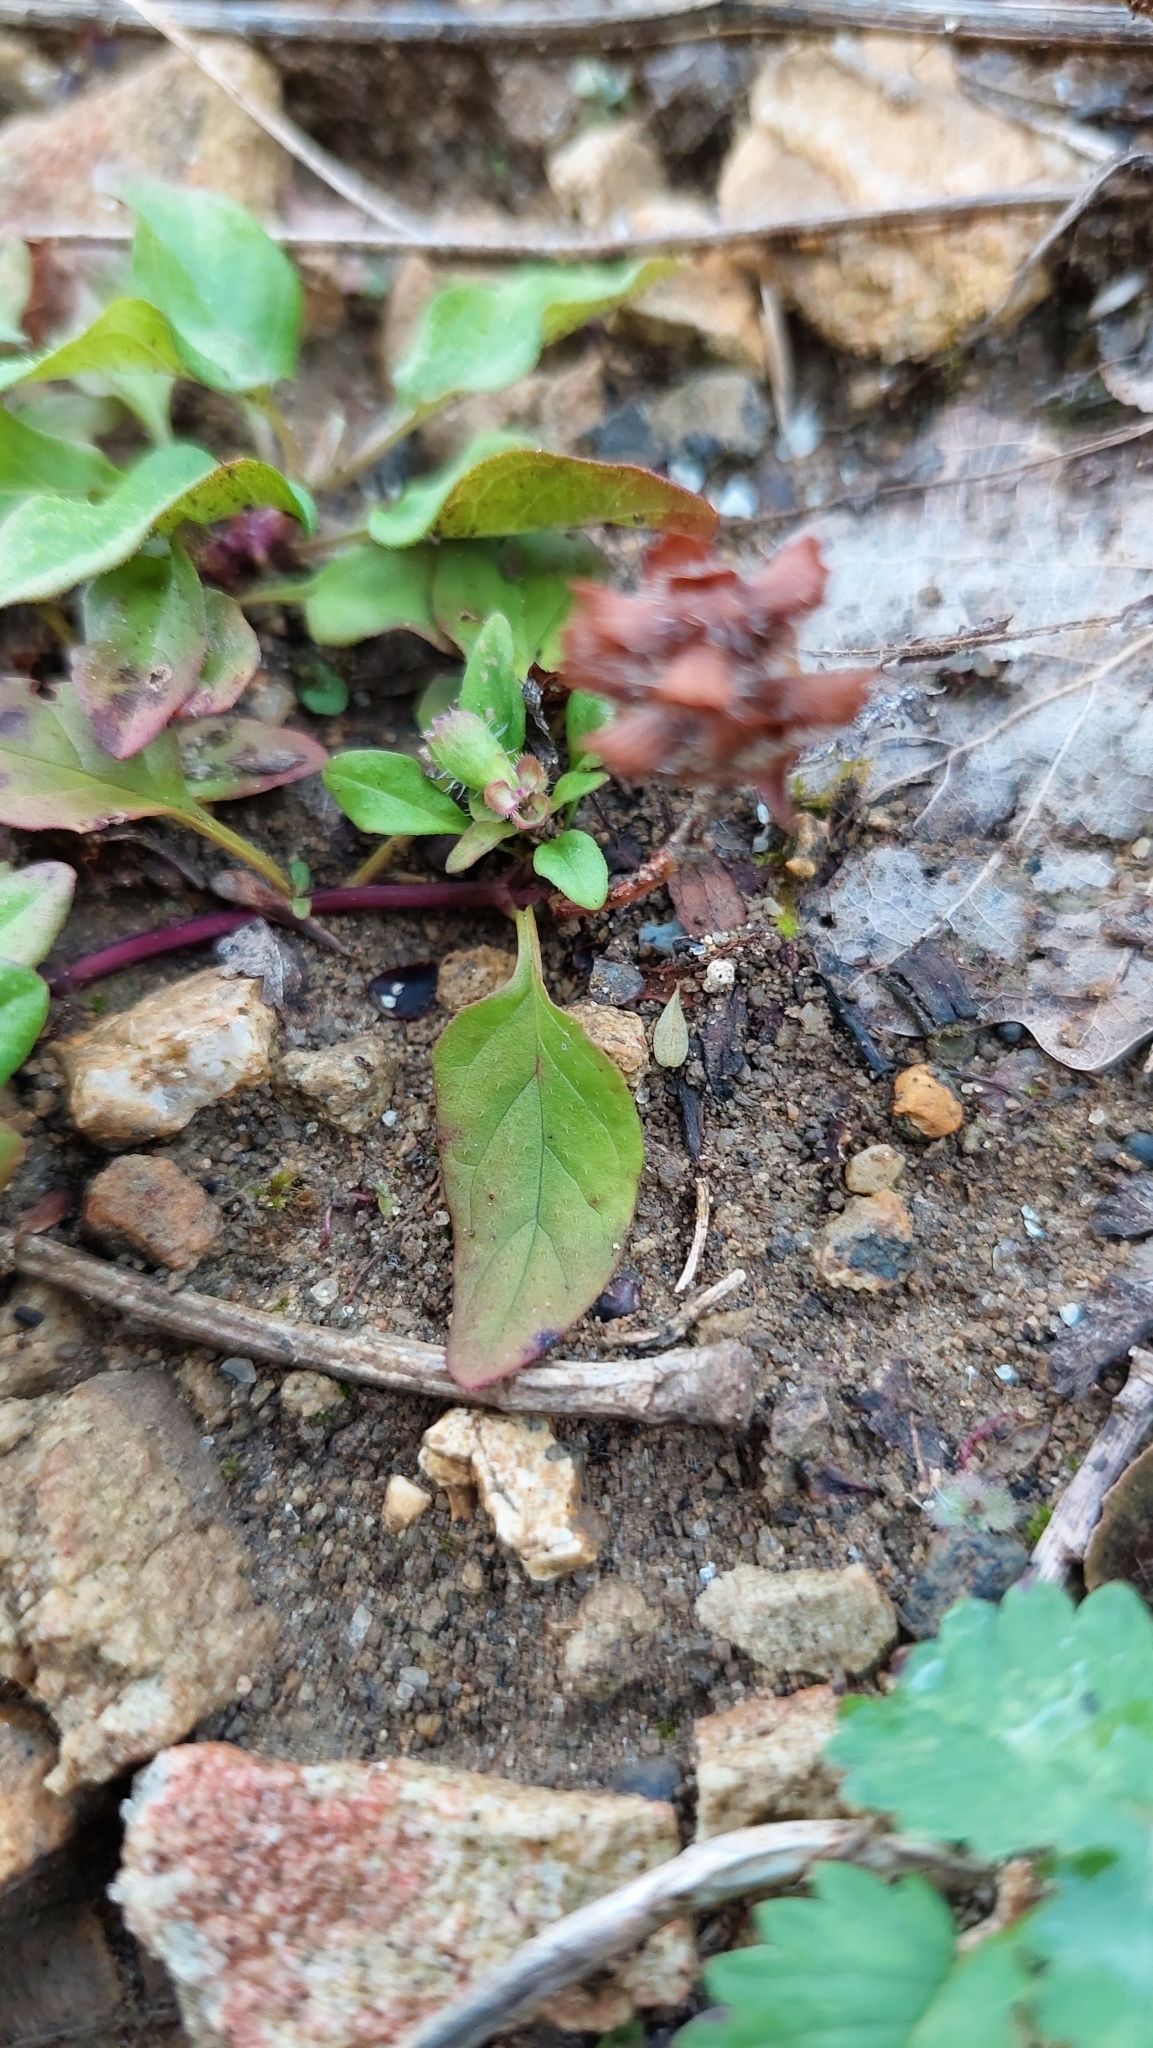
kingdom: Plantae
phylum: Tracheophyta
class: Magnoliopsida
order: Lamiales
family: Lamiaceae
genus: Prunella
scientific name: Prunella vulgaris
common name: Heal-all
